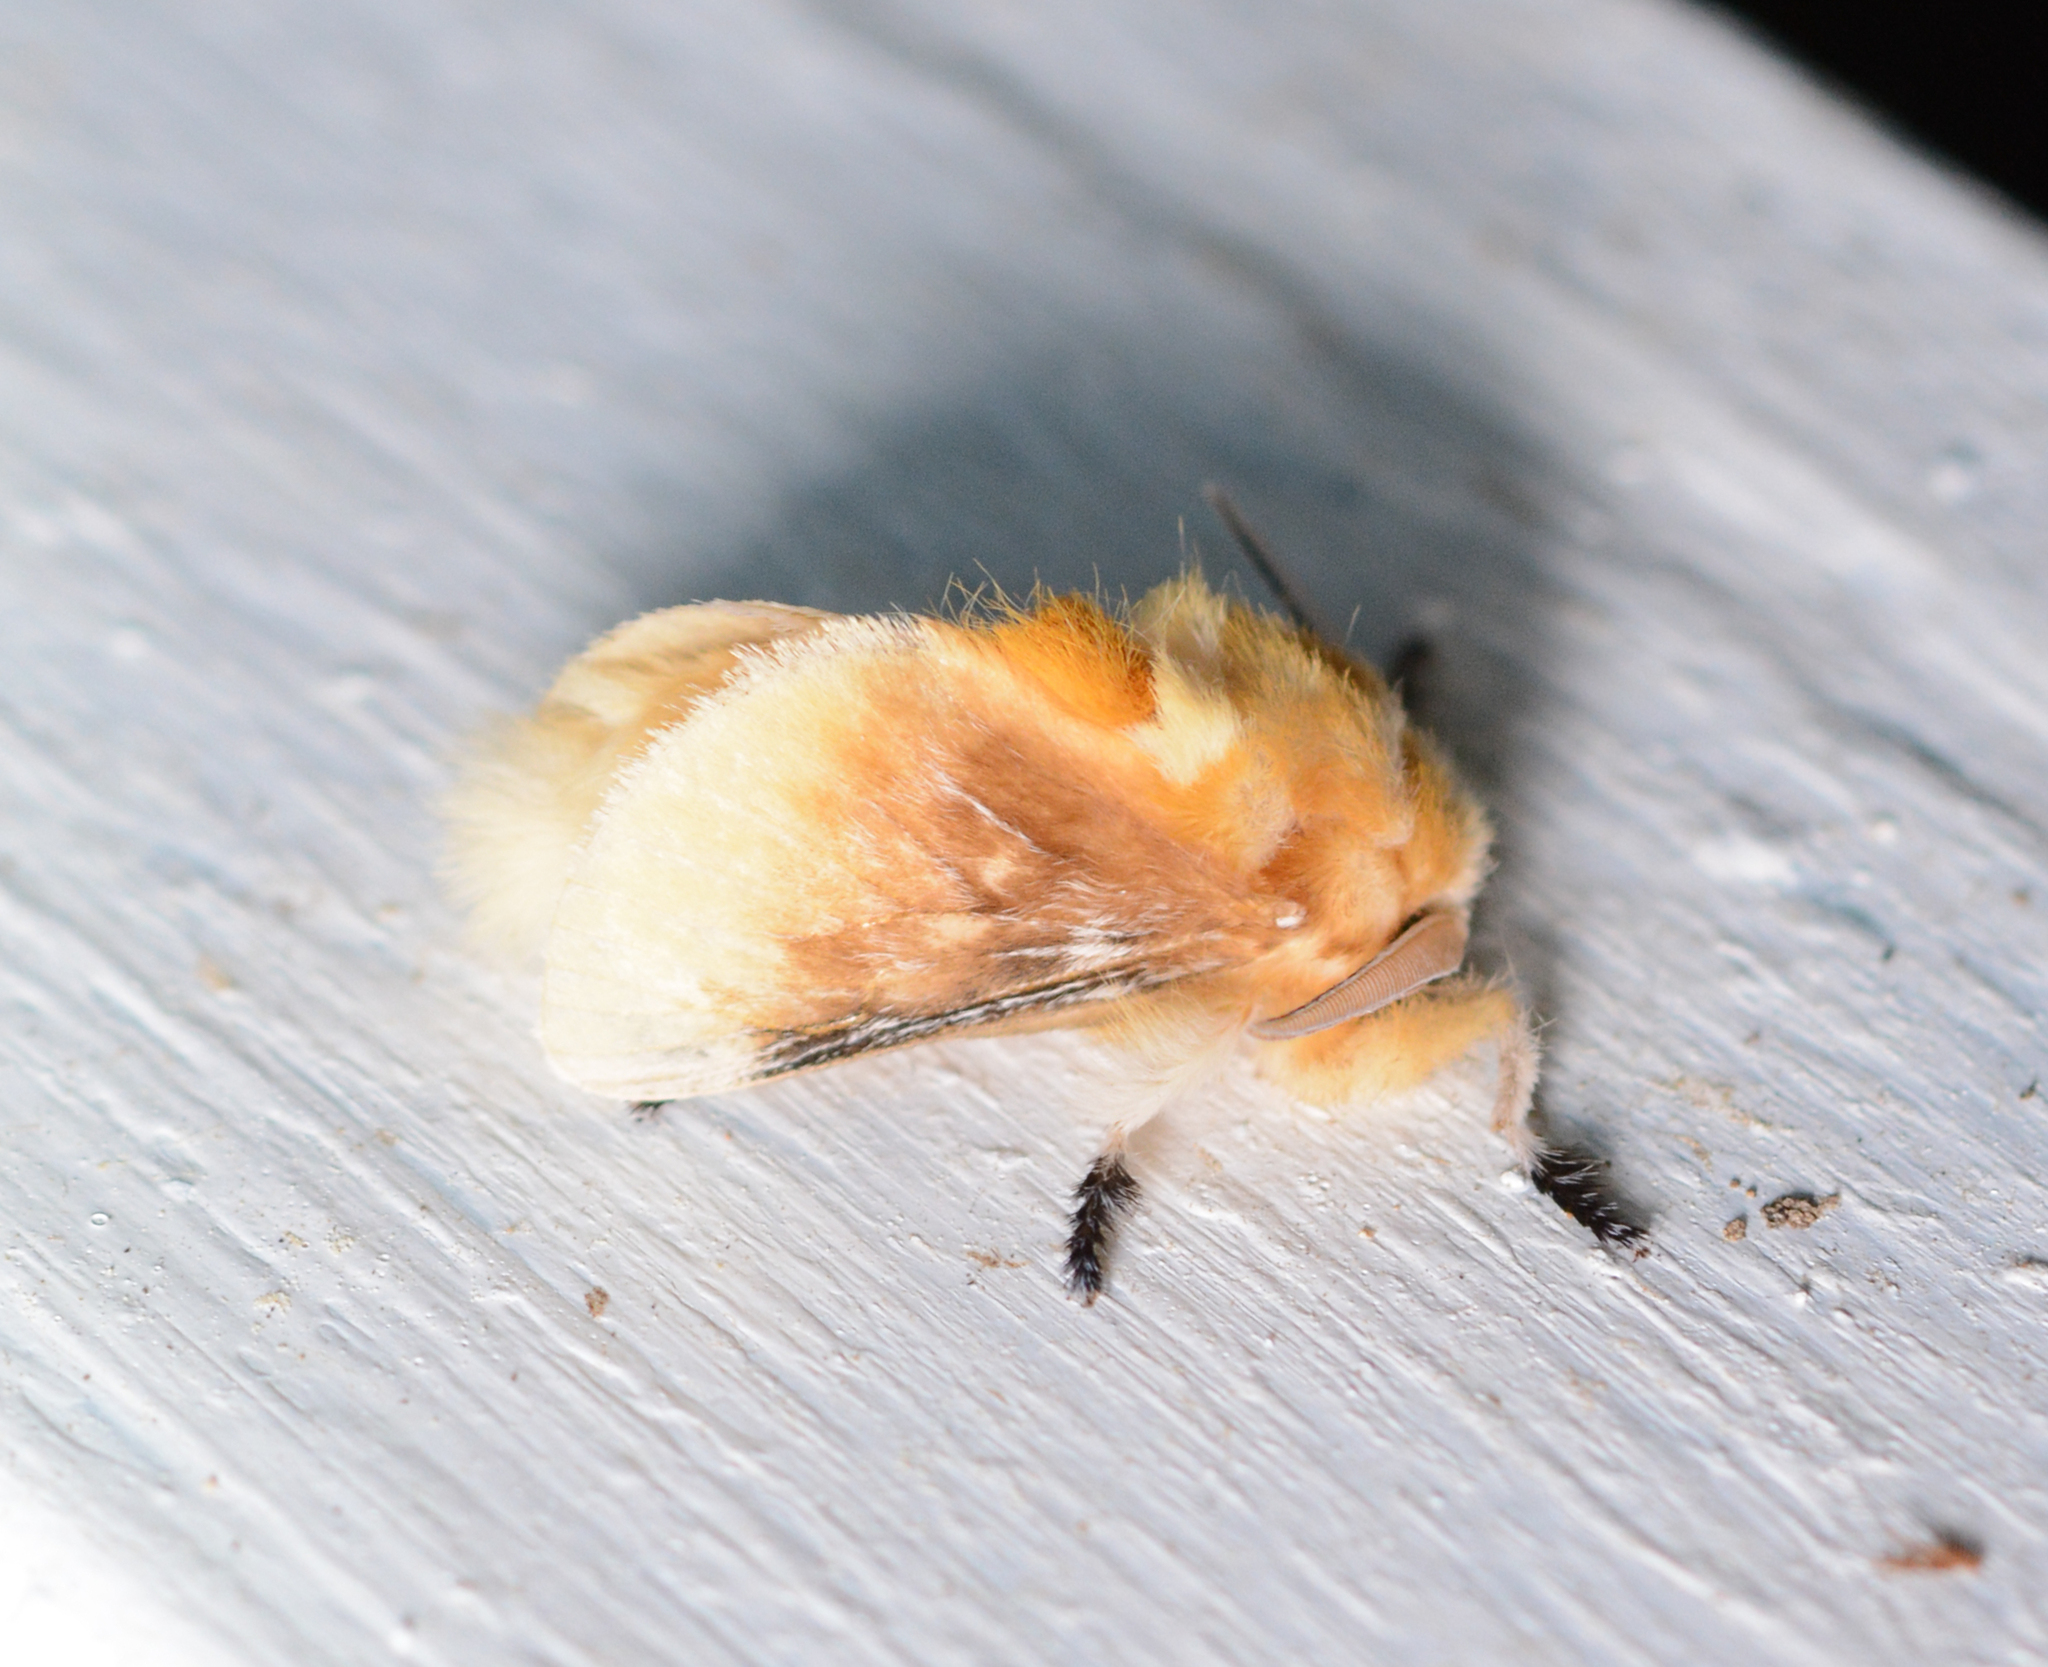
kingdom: Animalia
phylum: Arthropoda
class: Insecta
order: Lepidoptera
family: Megalopygidae
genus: Megalopyge
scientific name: Megalopyge opercularis
